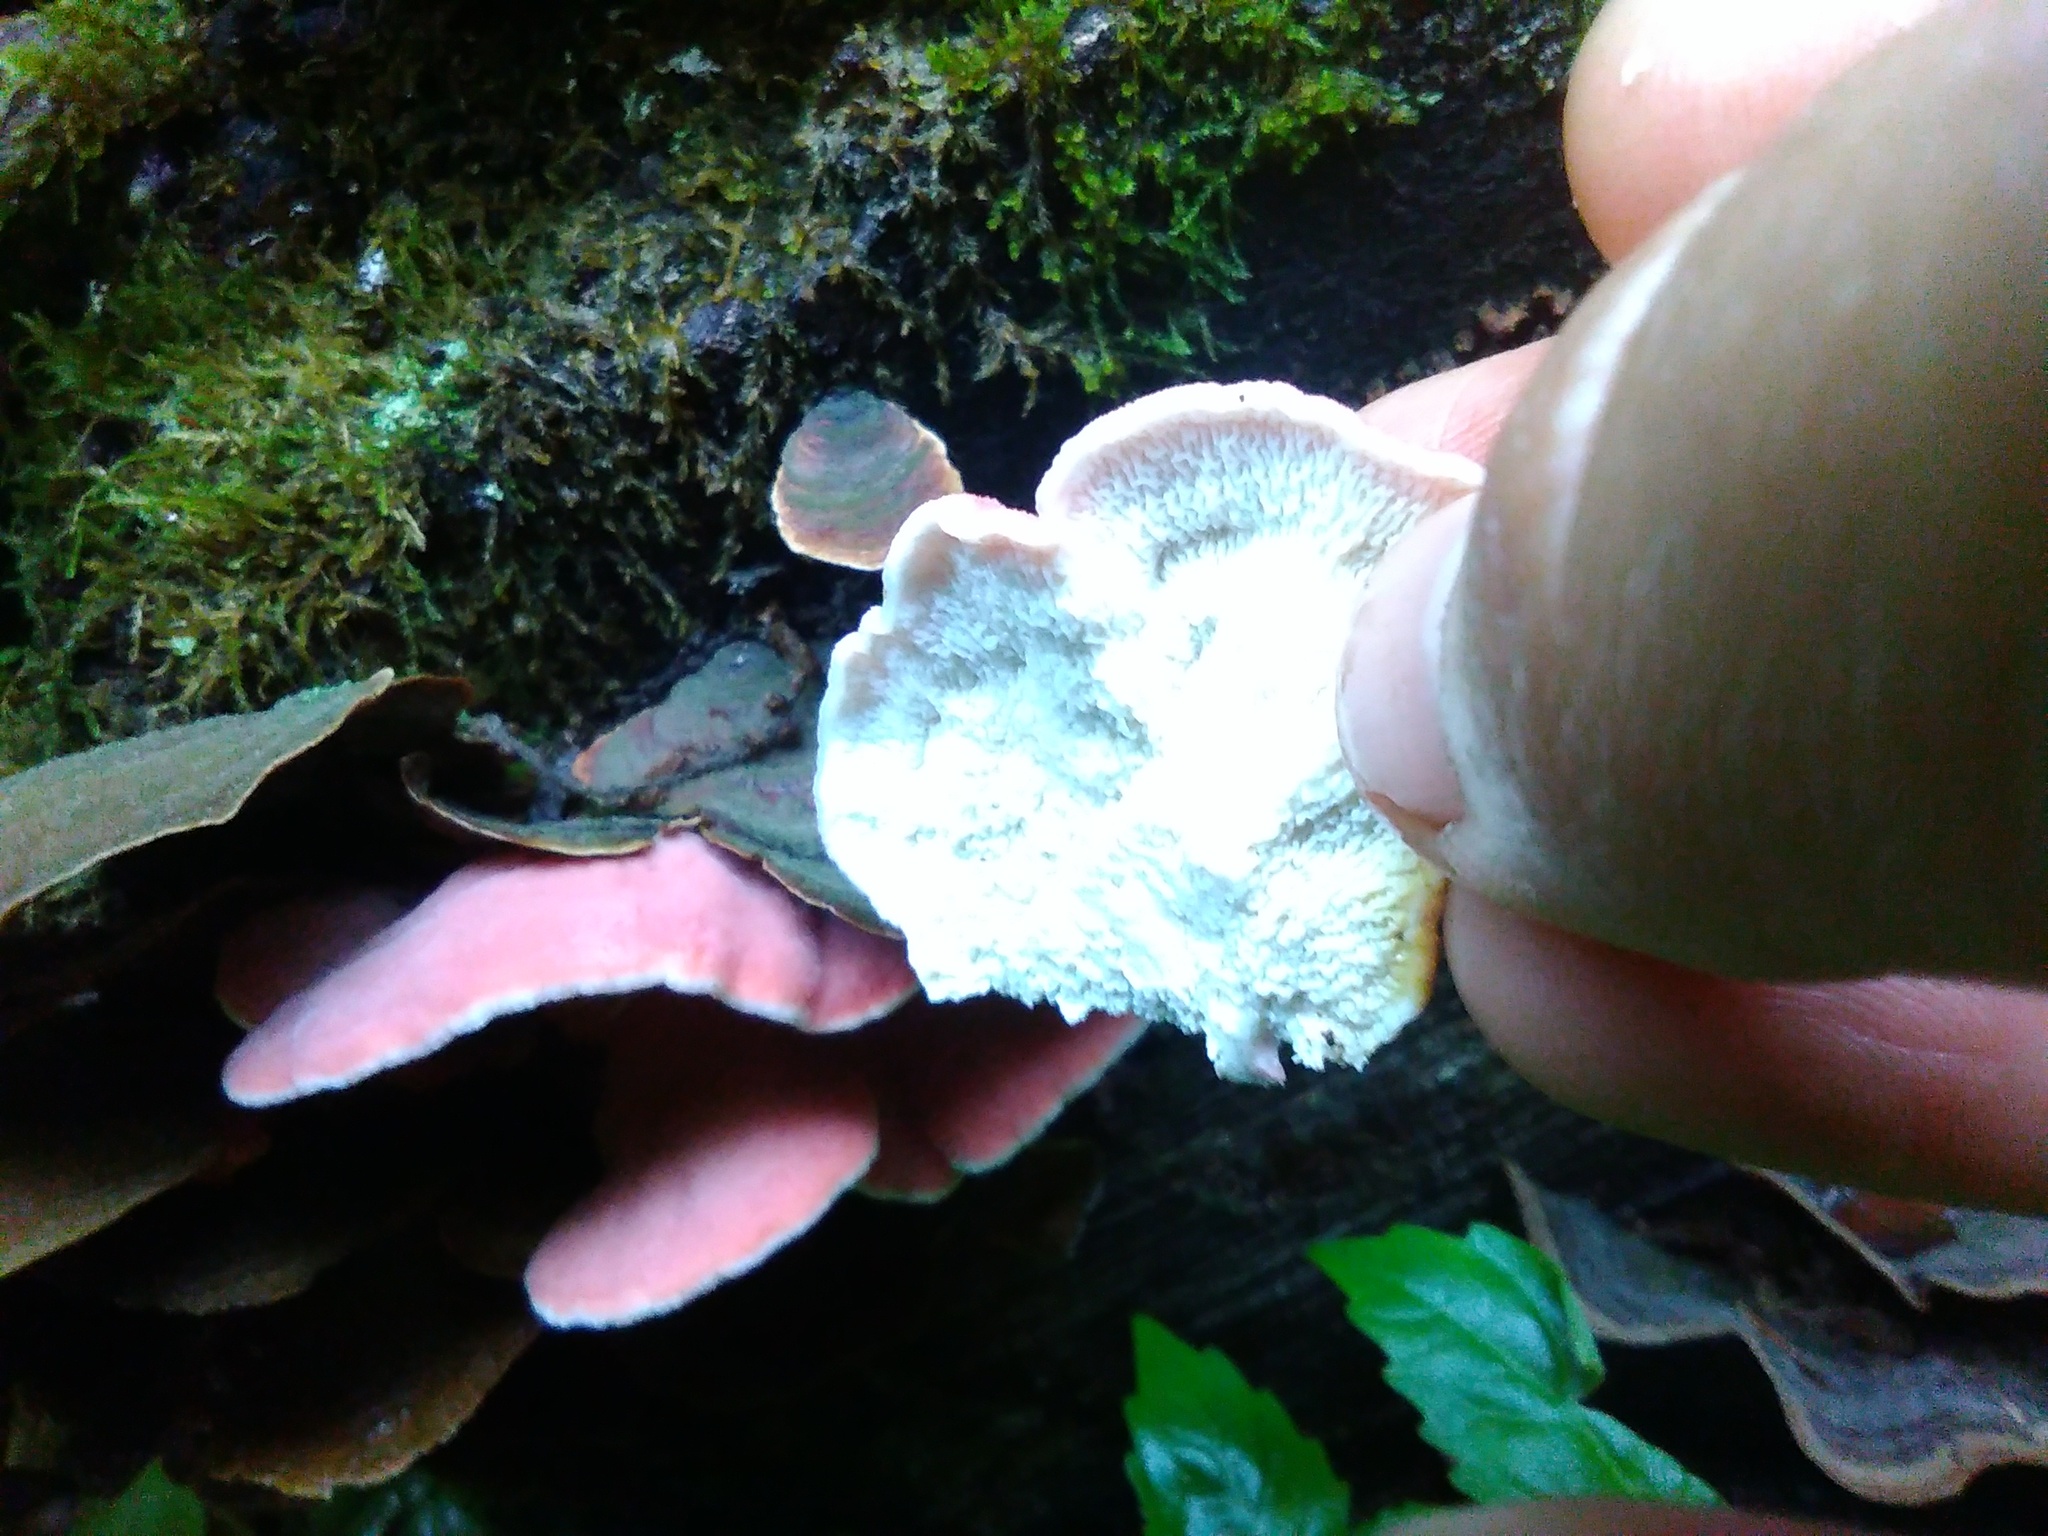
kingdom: Fungi
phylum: Basidiomycota
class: Agaricomycetes
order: Polyporales
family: Irpicaceae
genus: Byssomerulius
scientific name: Byssomerulius incarnatus
